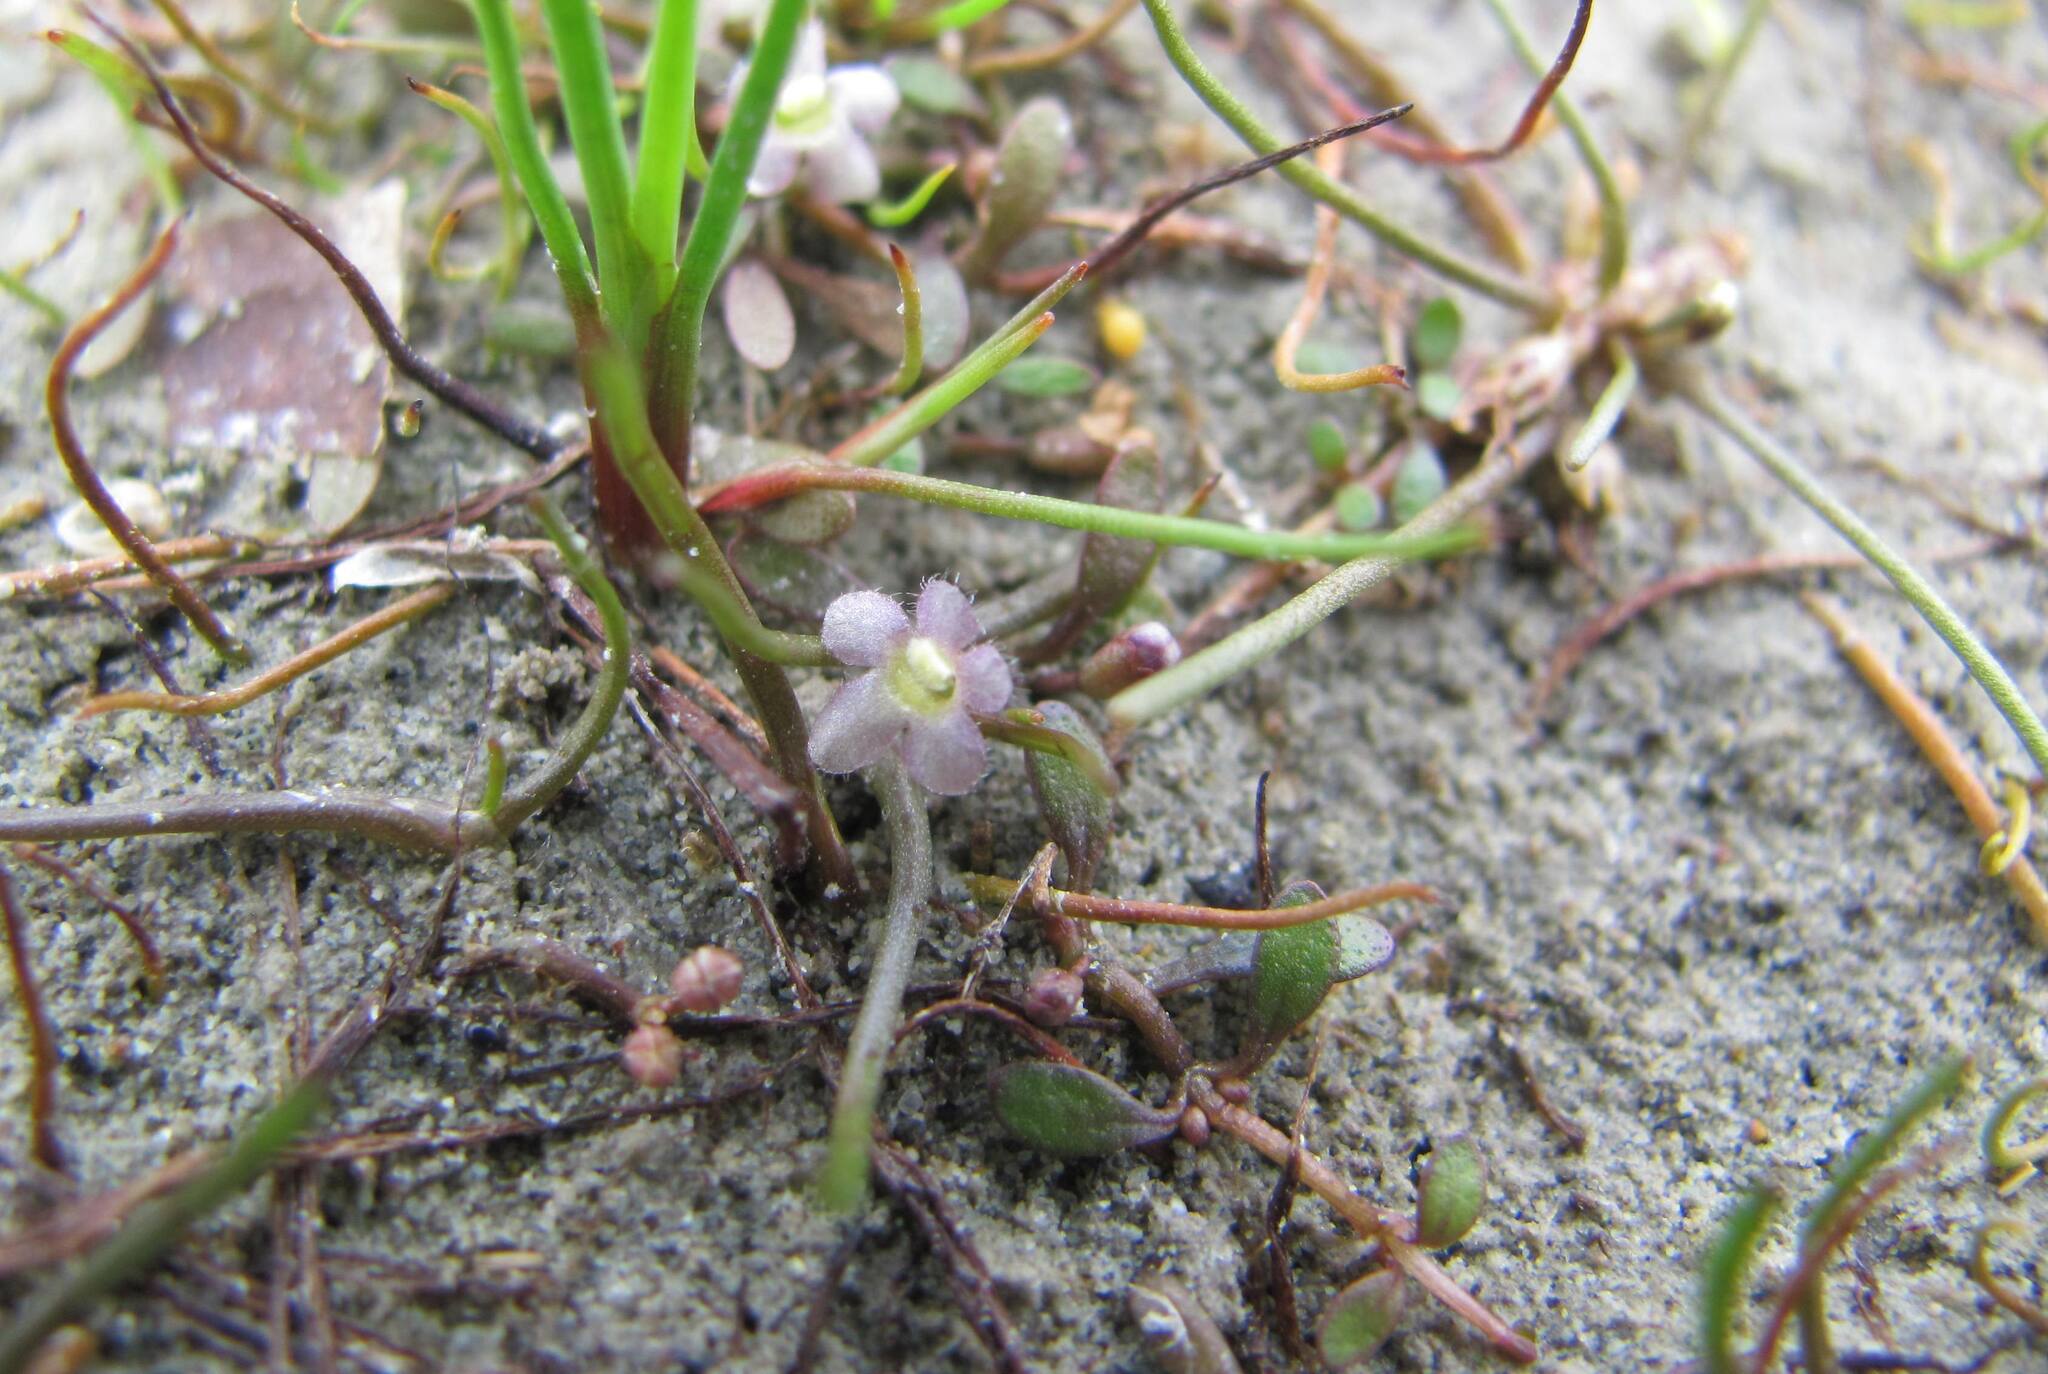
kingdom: Plantae
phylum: Tracheophyta
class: Magnoliopsida
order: Lamiales
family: Phrymaceae
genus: Glossostigma
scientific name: Glossostigma elatinoides
